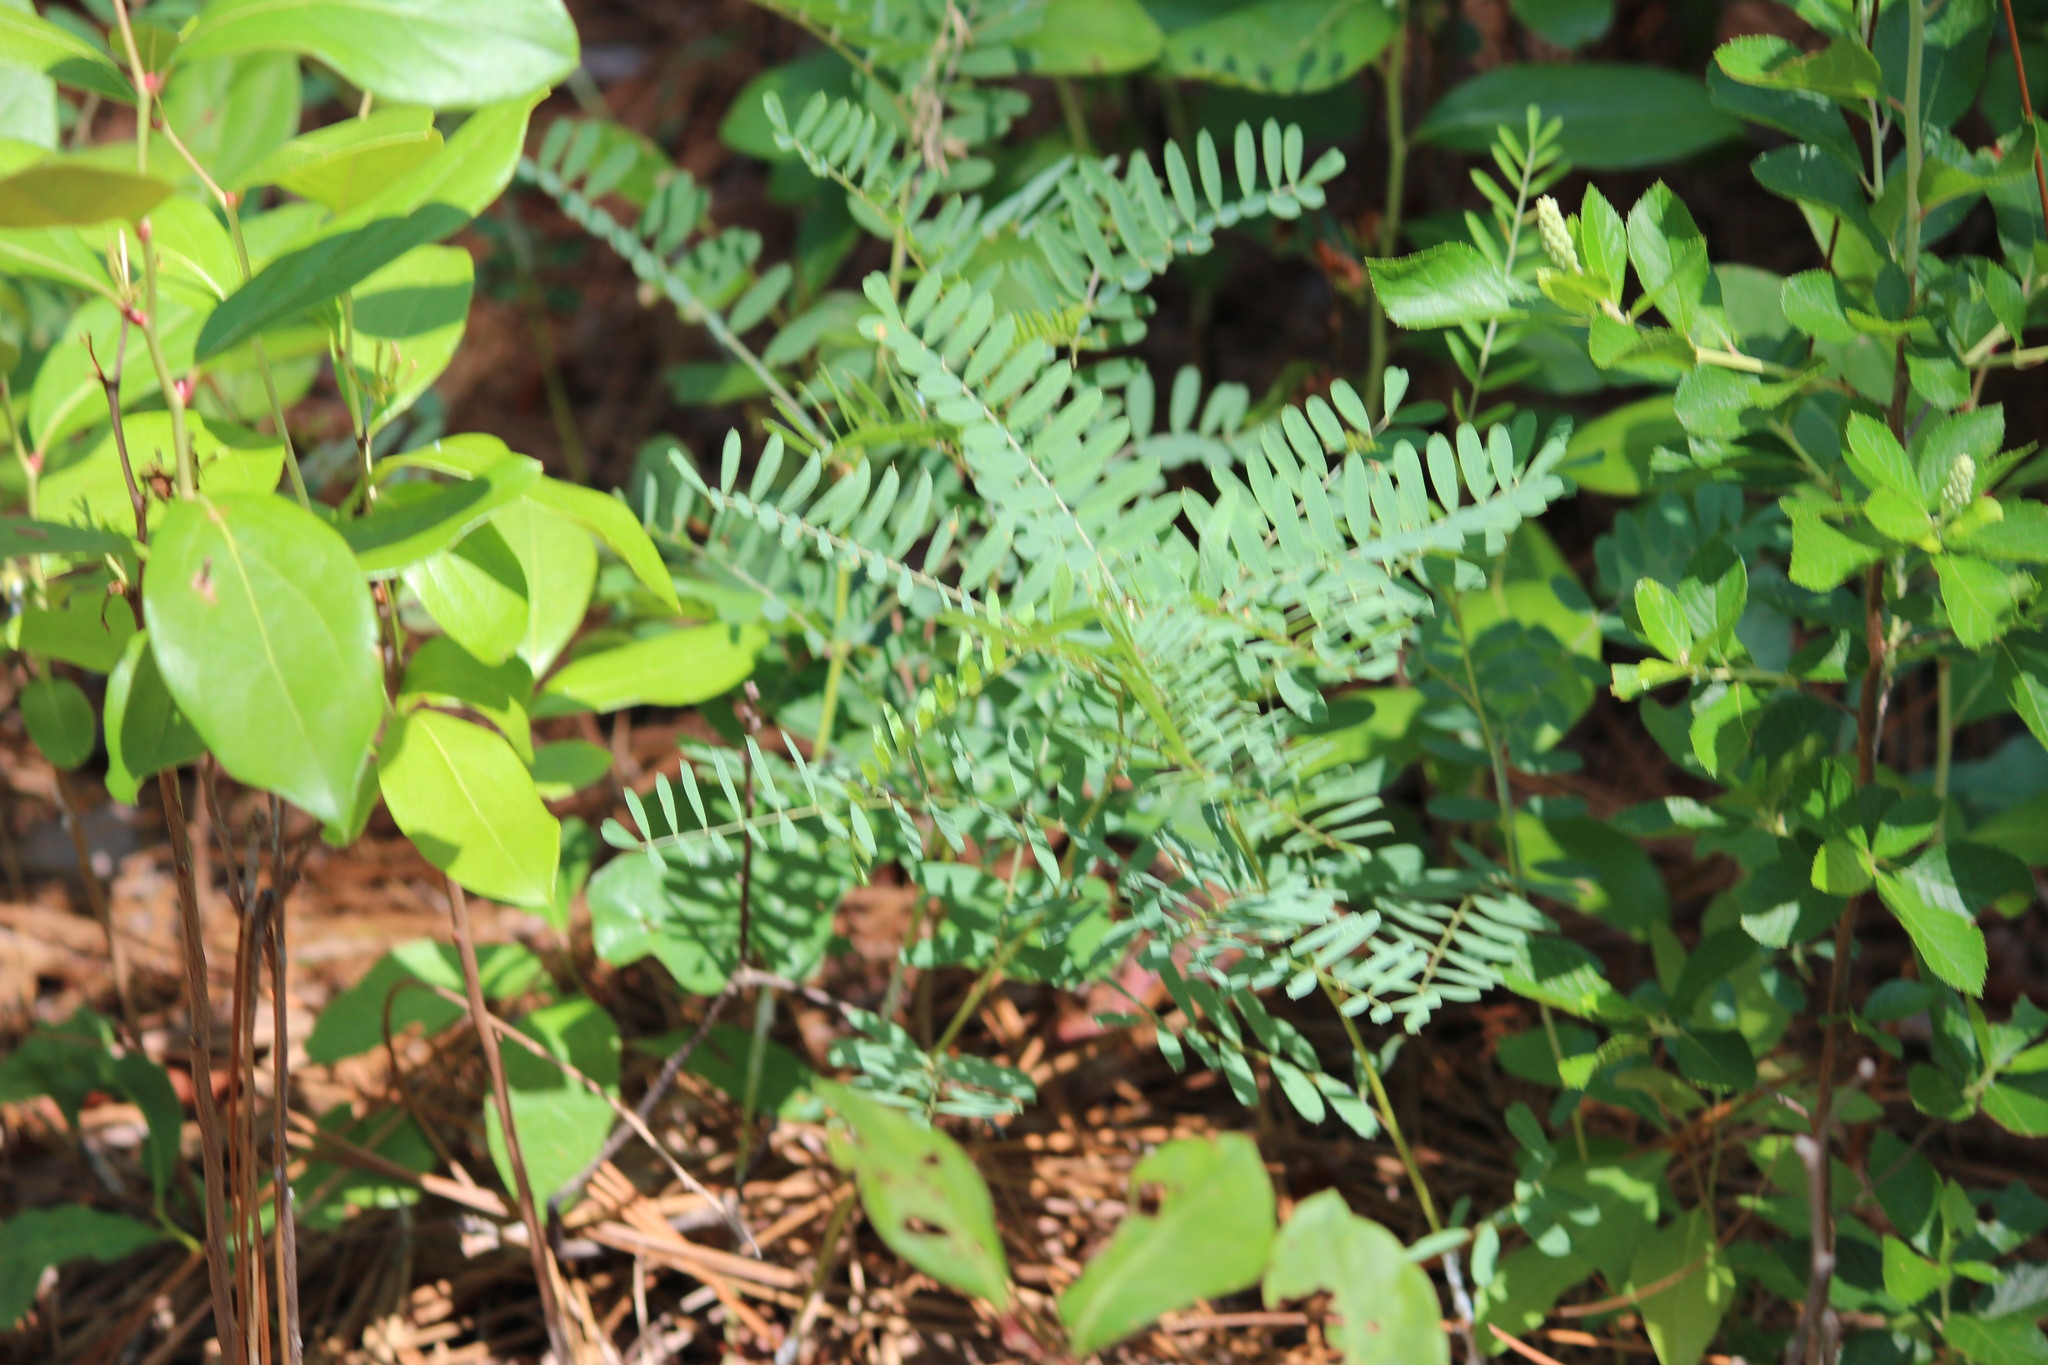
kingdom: Plantae
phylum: Tracheophyta
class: Magnoliopsida
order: Fabales
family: Fabaceae
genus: Tephrosia
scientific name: Tephrosia virginiana
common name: Rabbit-pea
